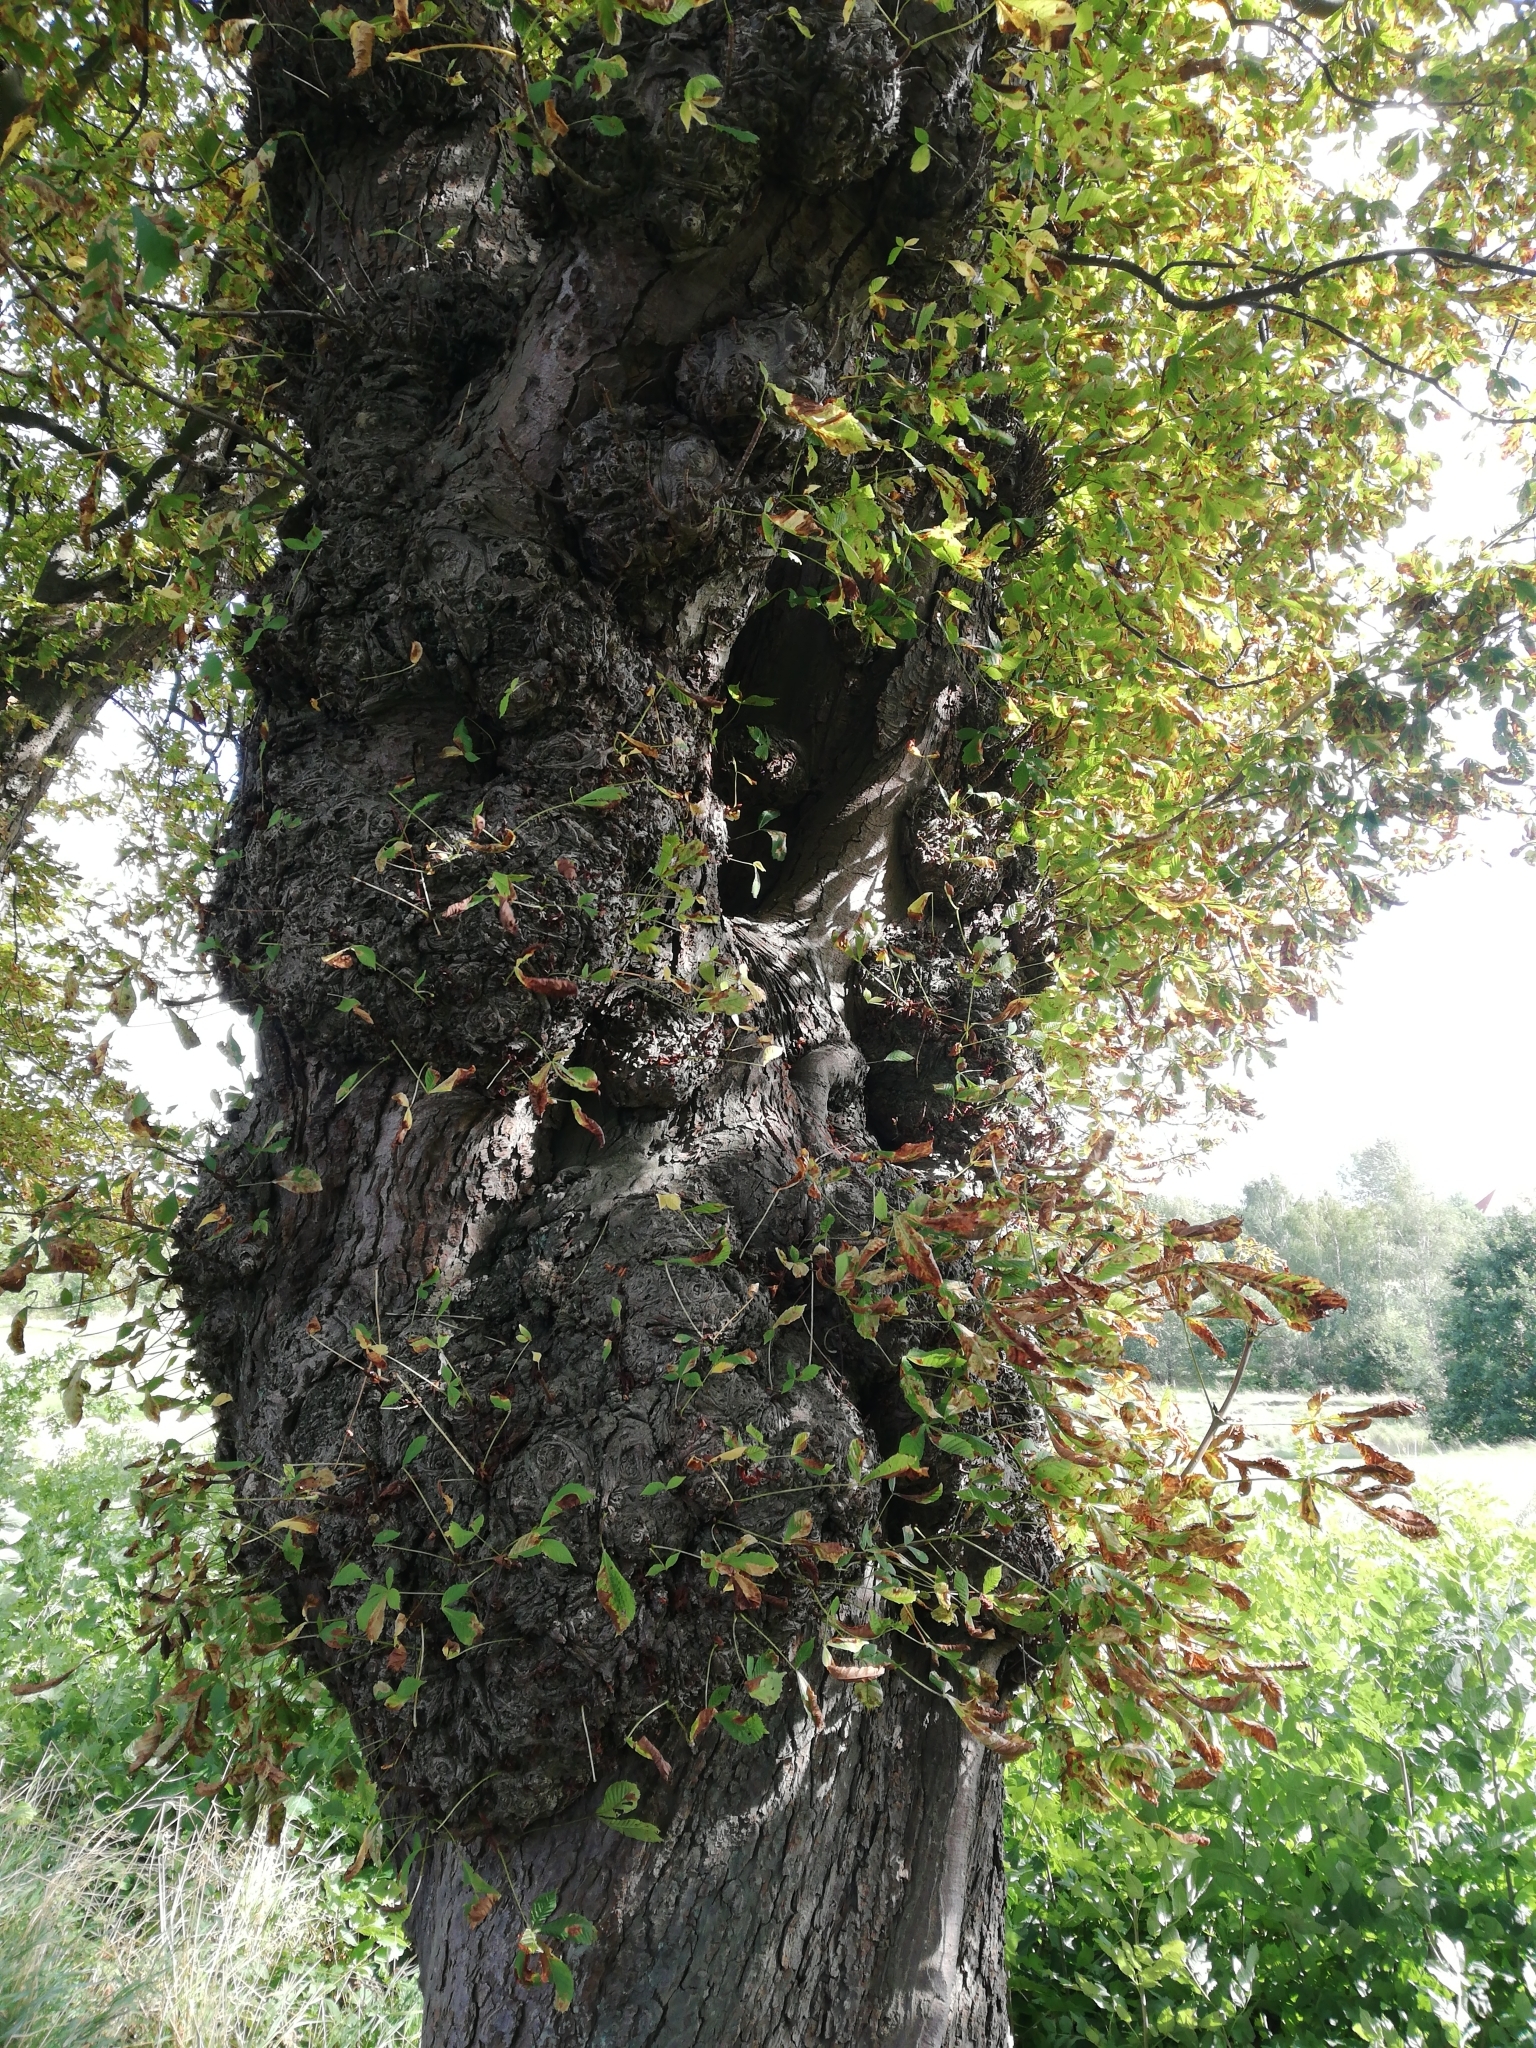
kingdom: Plantae
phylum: Tracheophyta
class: Magnoliopsida
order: Sapindales
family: Sapindaceae
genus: Aesculus
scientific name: Aesculus hippocastanum
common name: Horse-chestnut
